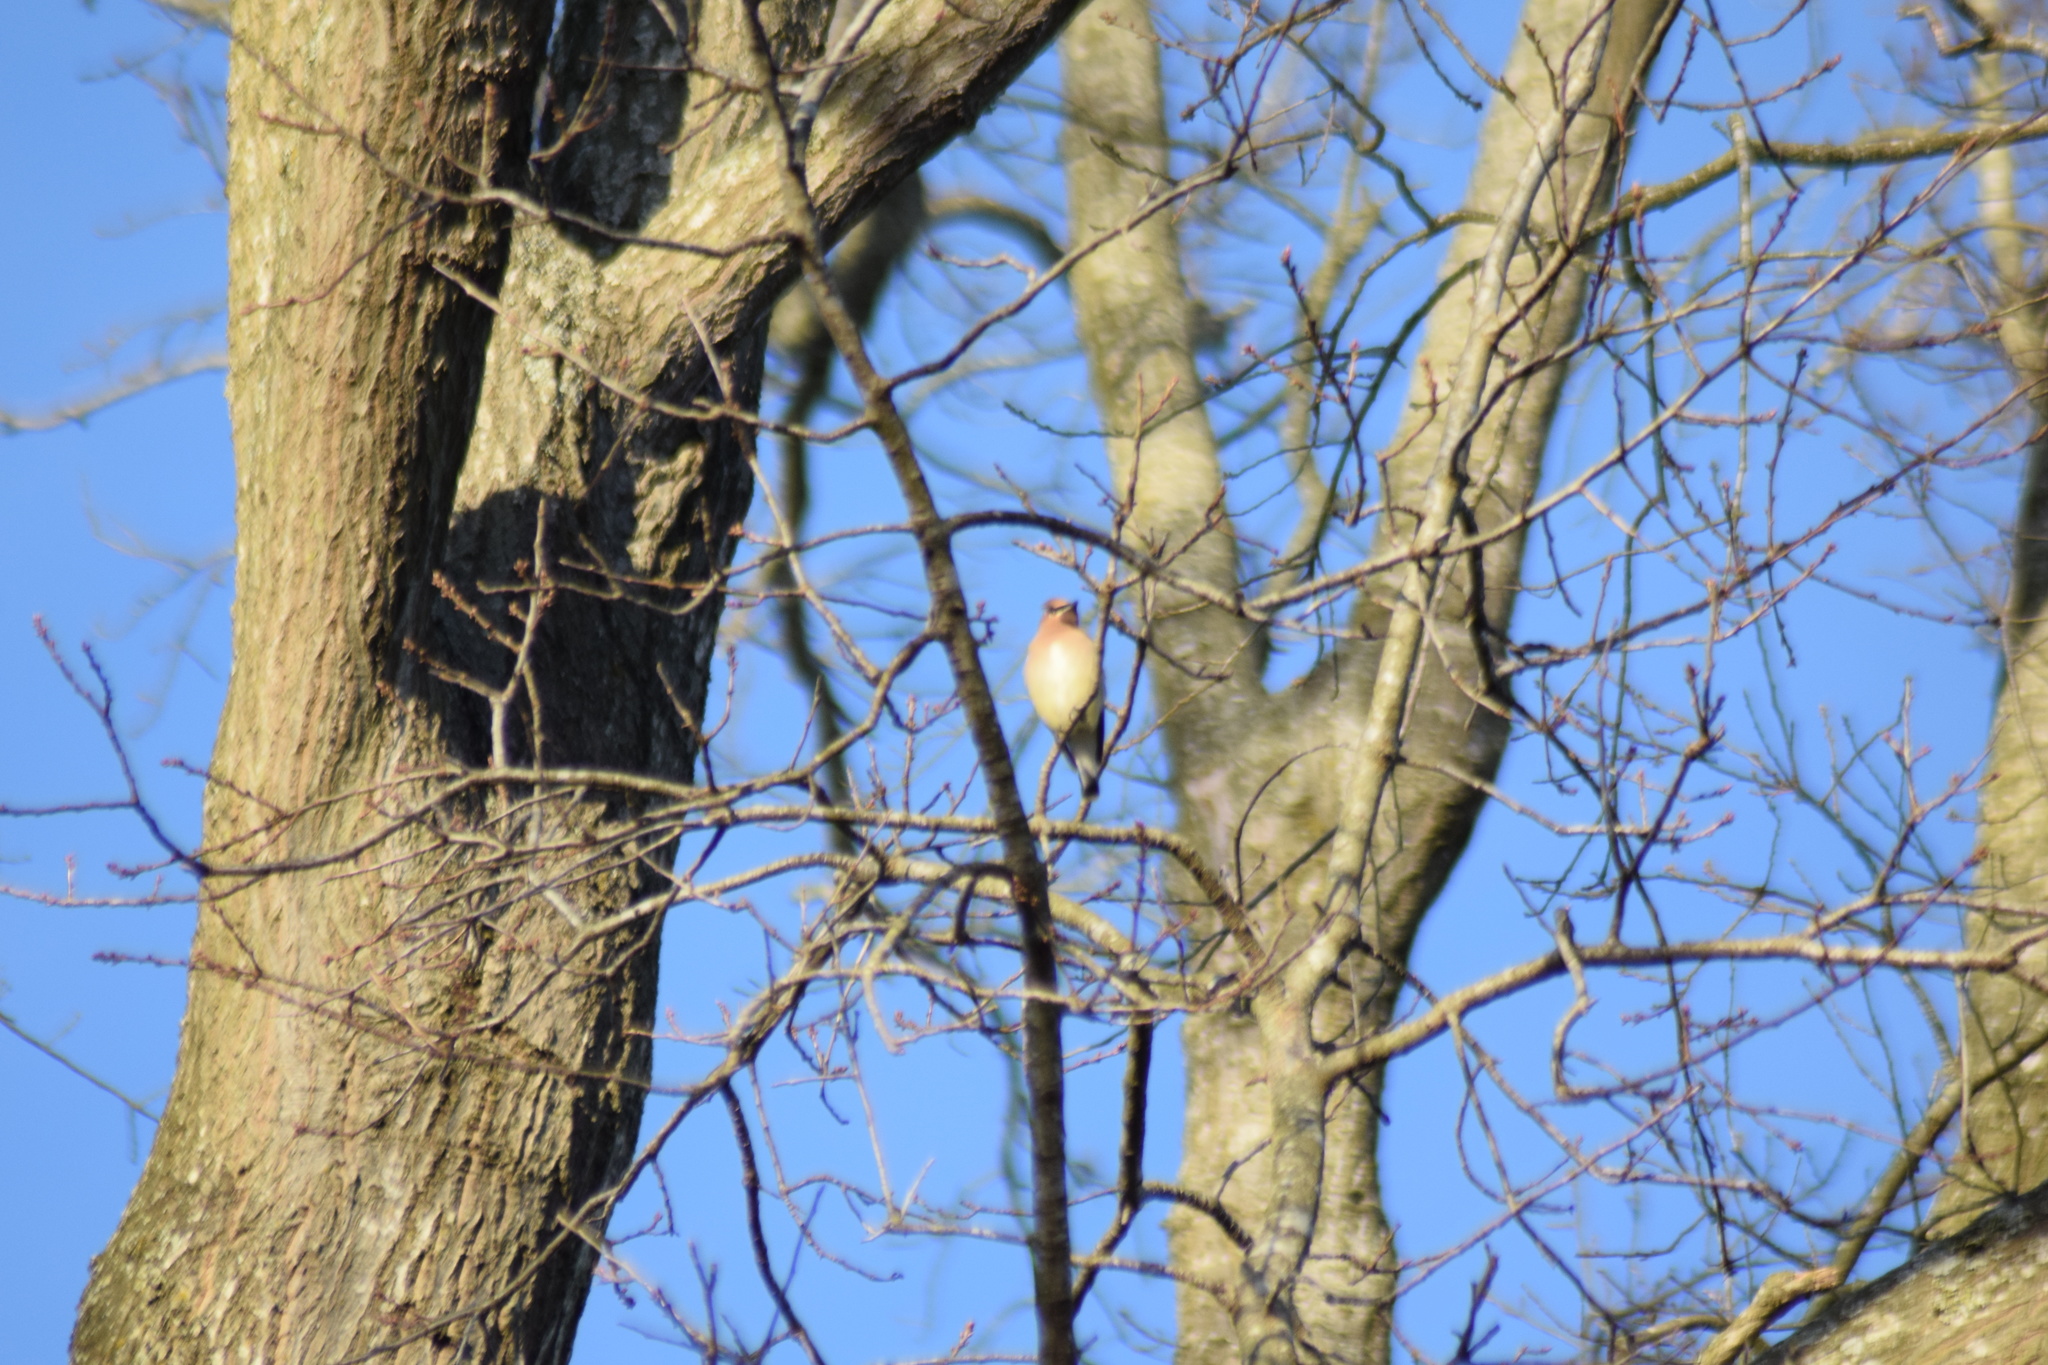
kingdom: Animalia
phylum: Chordata
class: Aves
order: Passeriformes
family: Bombycillidae
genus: Bombycilla
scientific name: Bombycilla cedrorum
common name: Cedar waxwing
